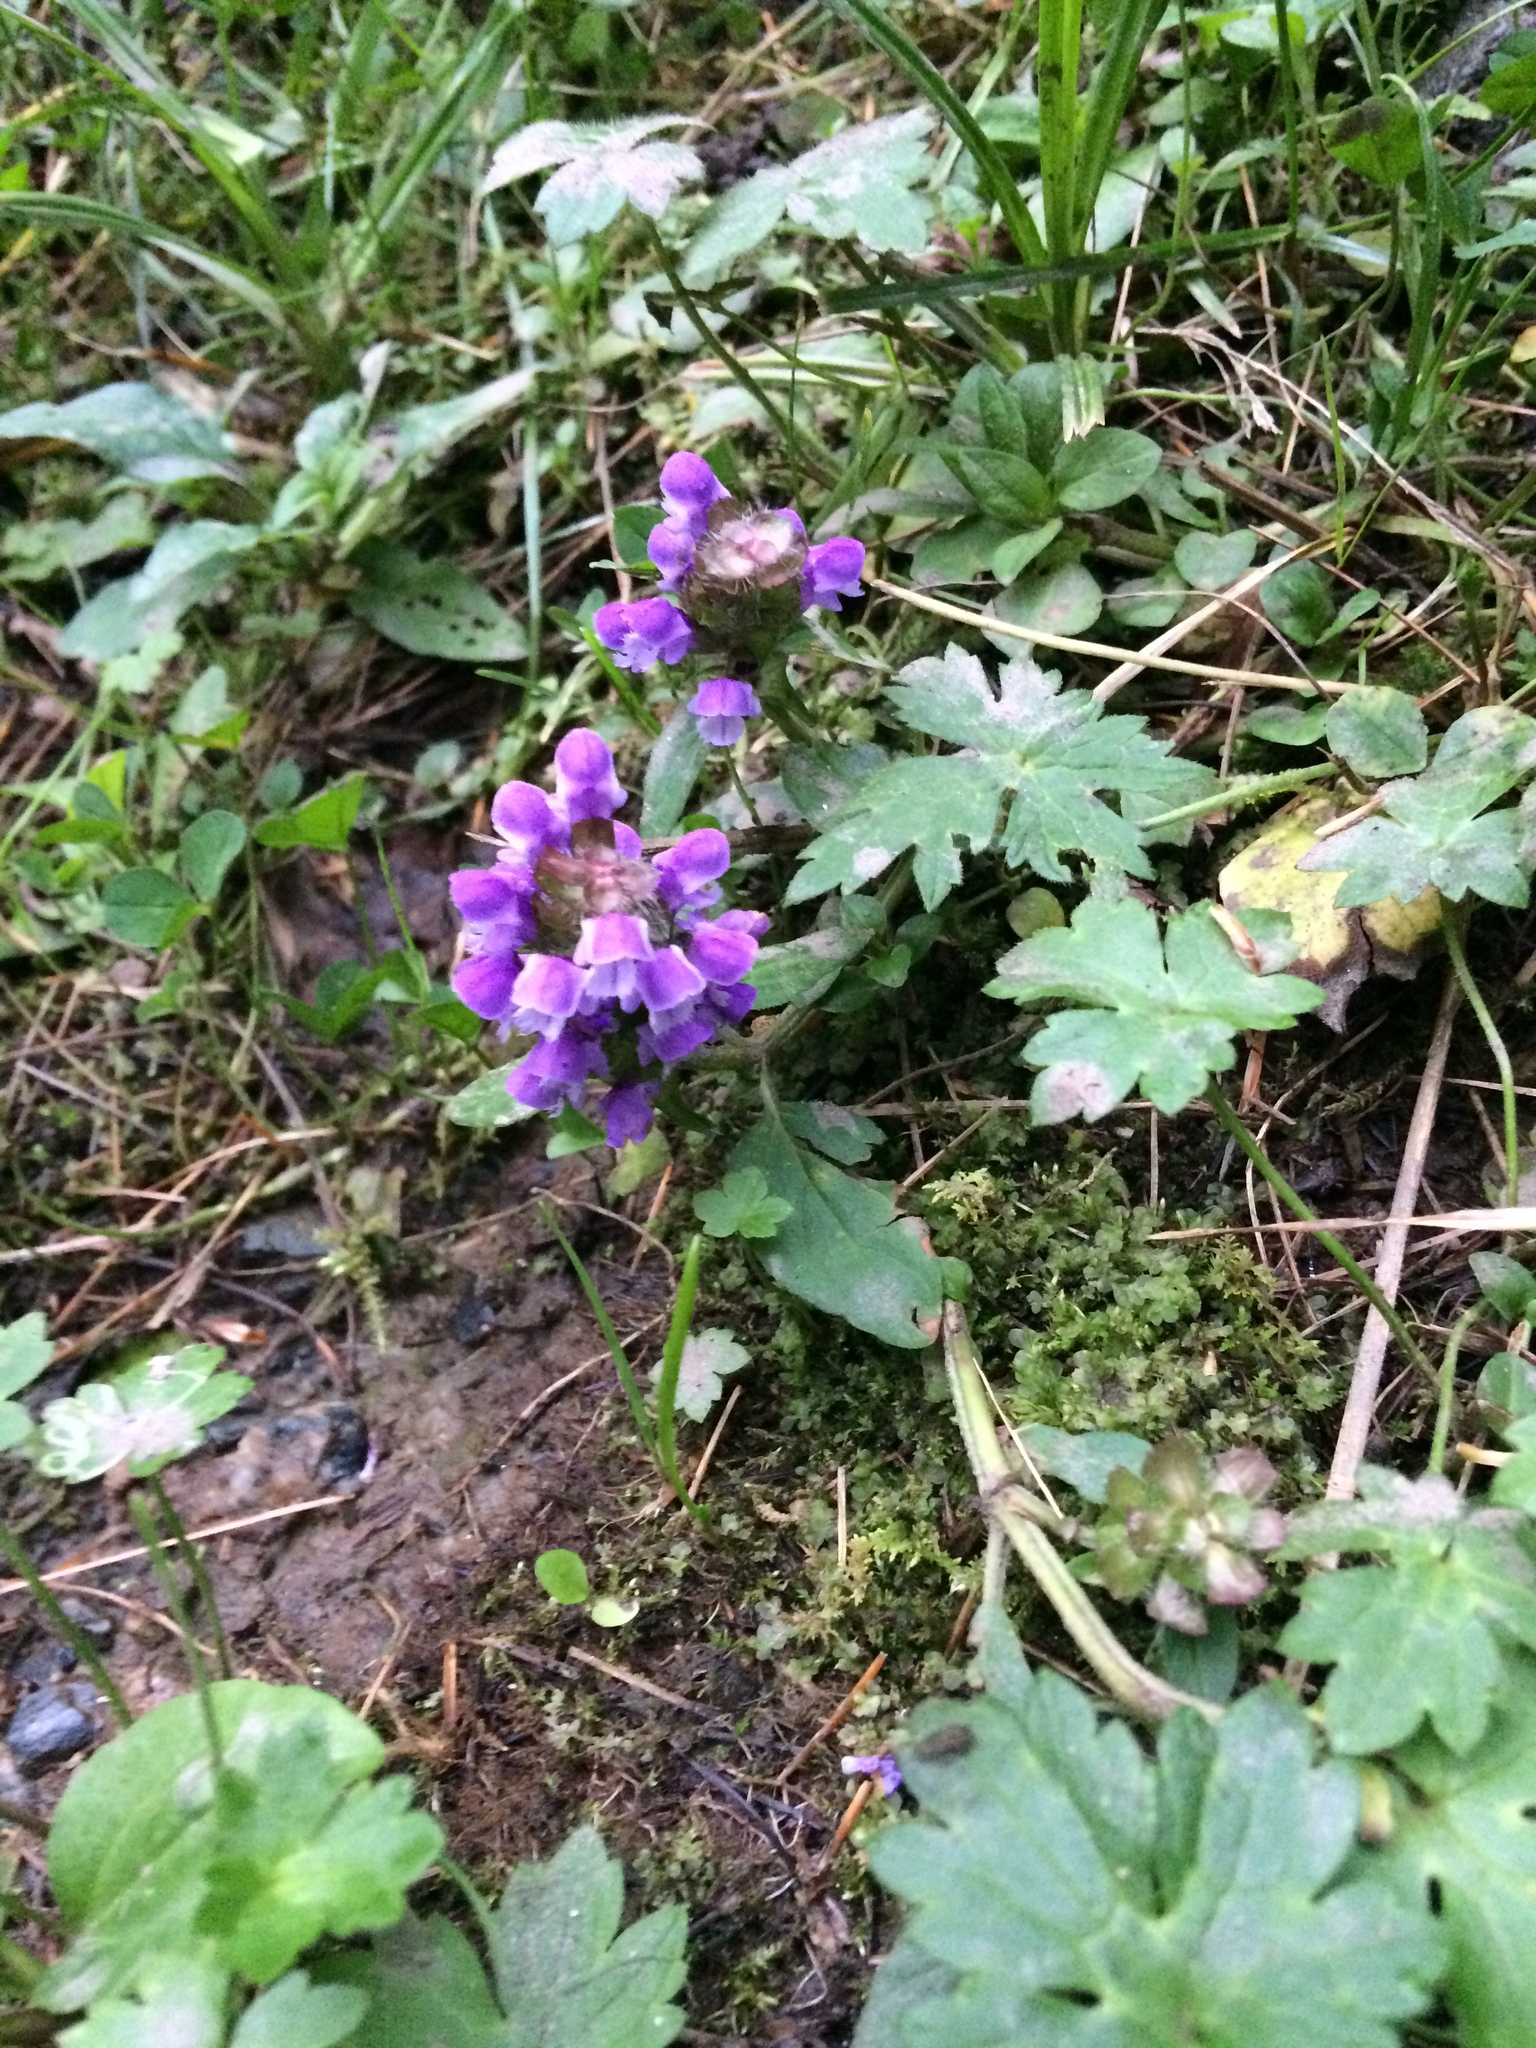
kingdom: Plantae
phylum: Tracheophyta
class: Magnoliopsida
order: Lamiales
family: Lamiaceae
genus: Prunella
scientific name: Prunella vulgaris
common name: Heal-all
